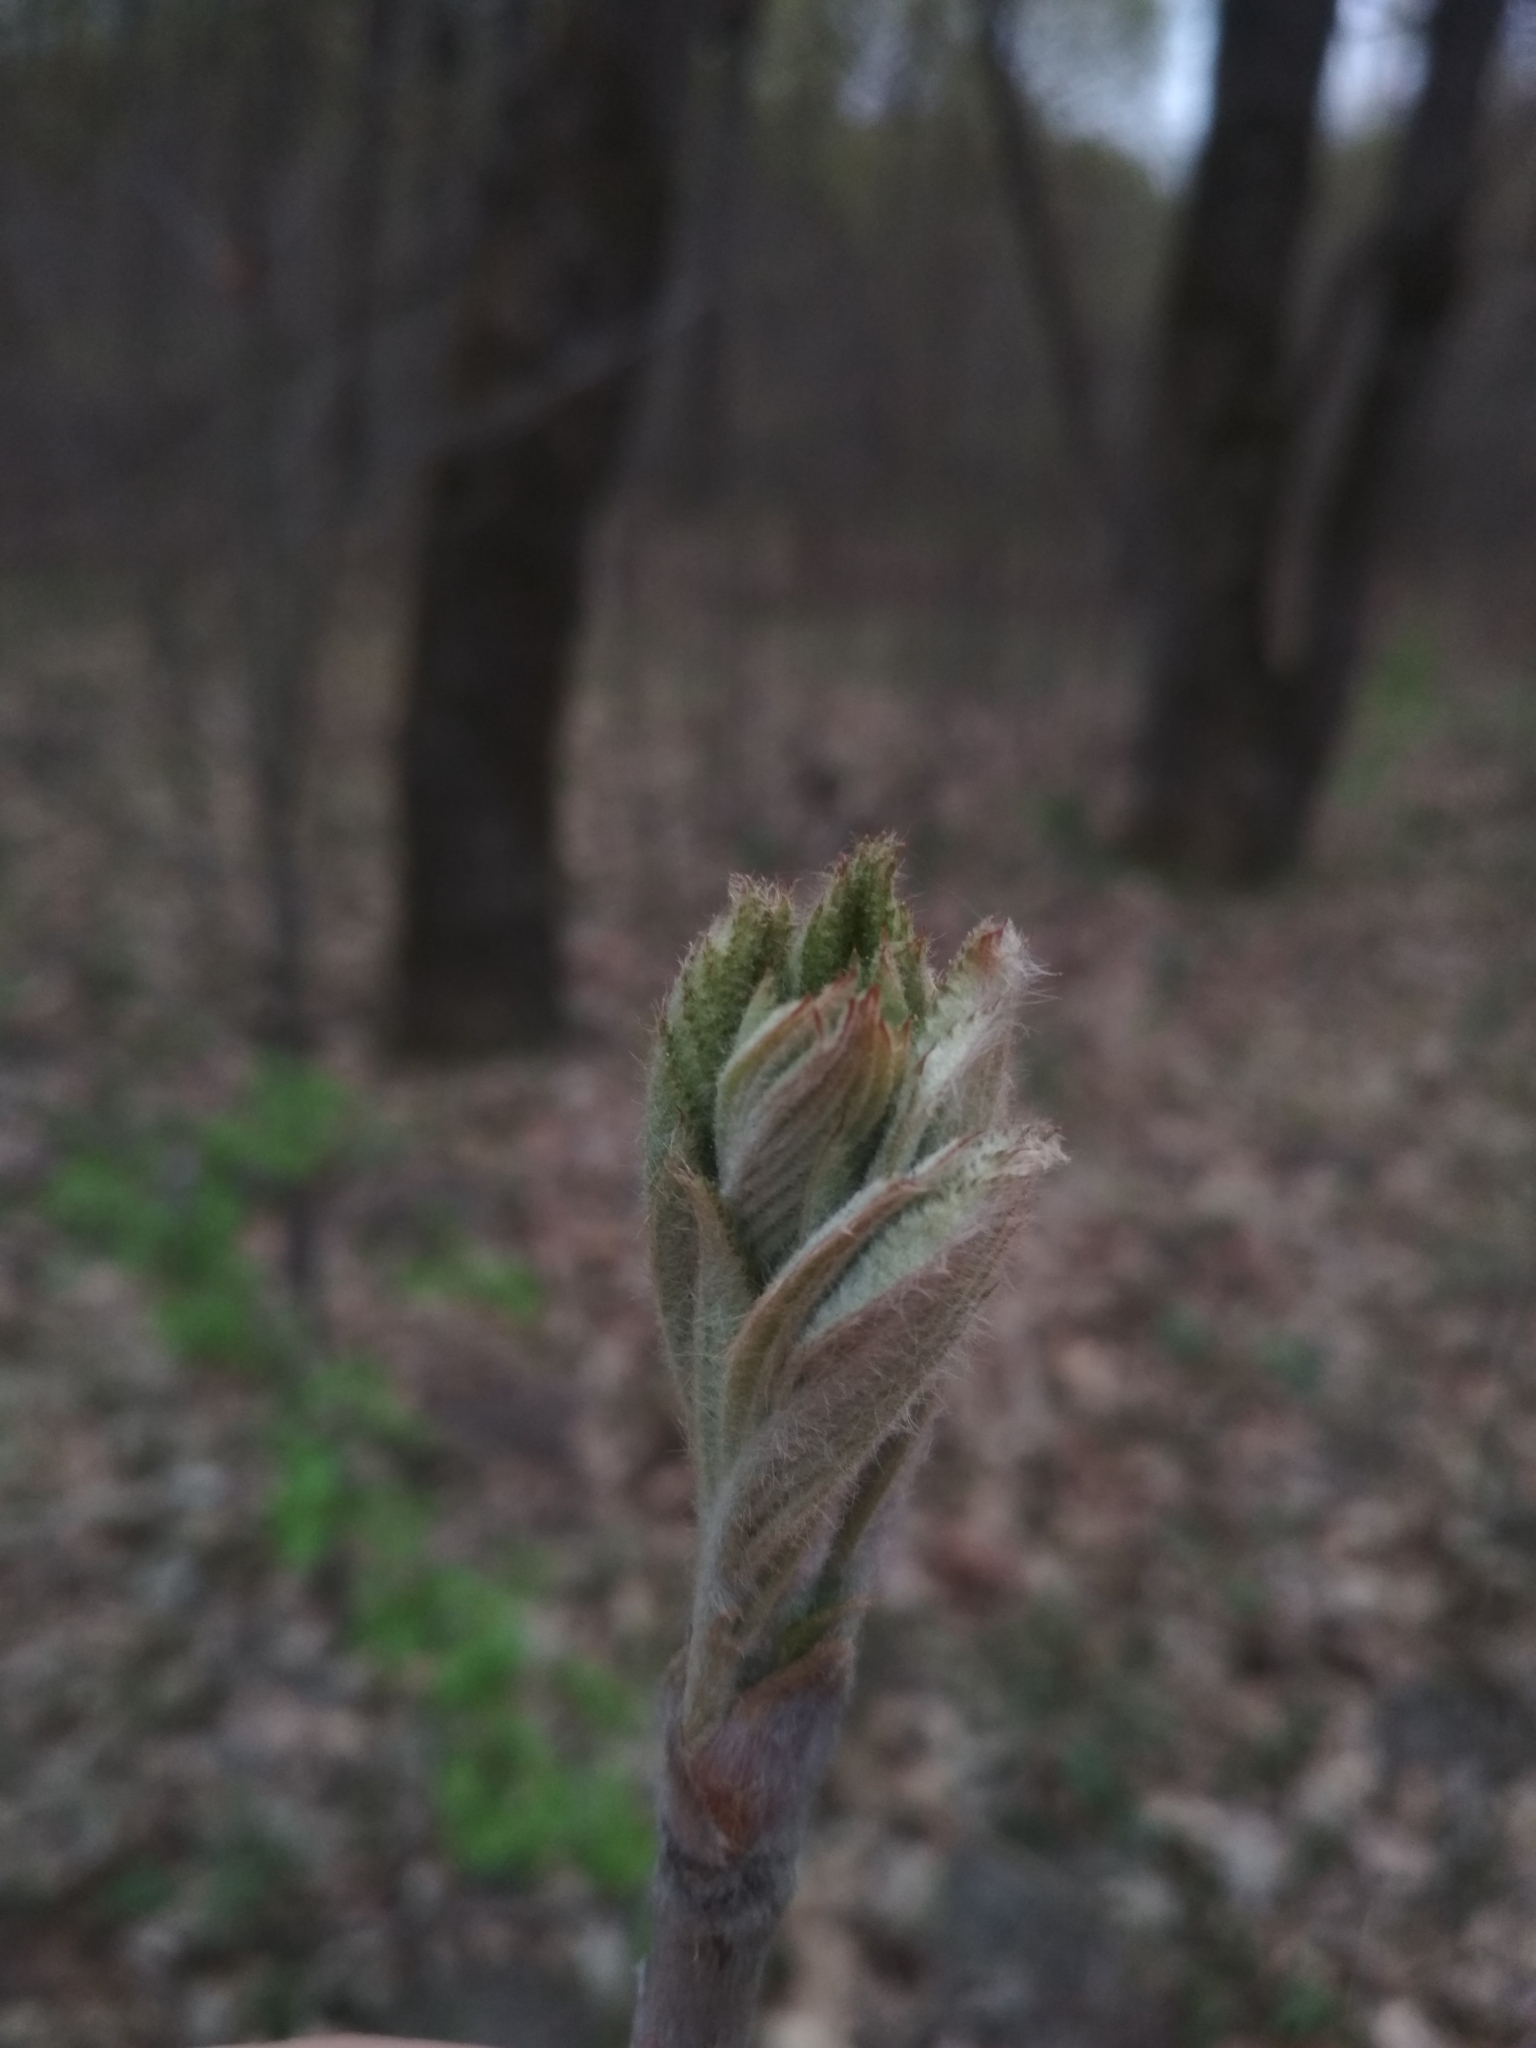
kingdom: Plantae
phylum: Tracheophyta
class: Magnoliopsida
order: Rosales
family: Rosaceae
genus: Sorbus
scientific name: Sorbus aucuparia
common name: Rowan
